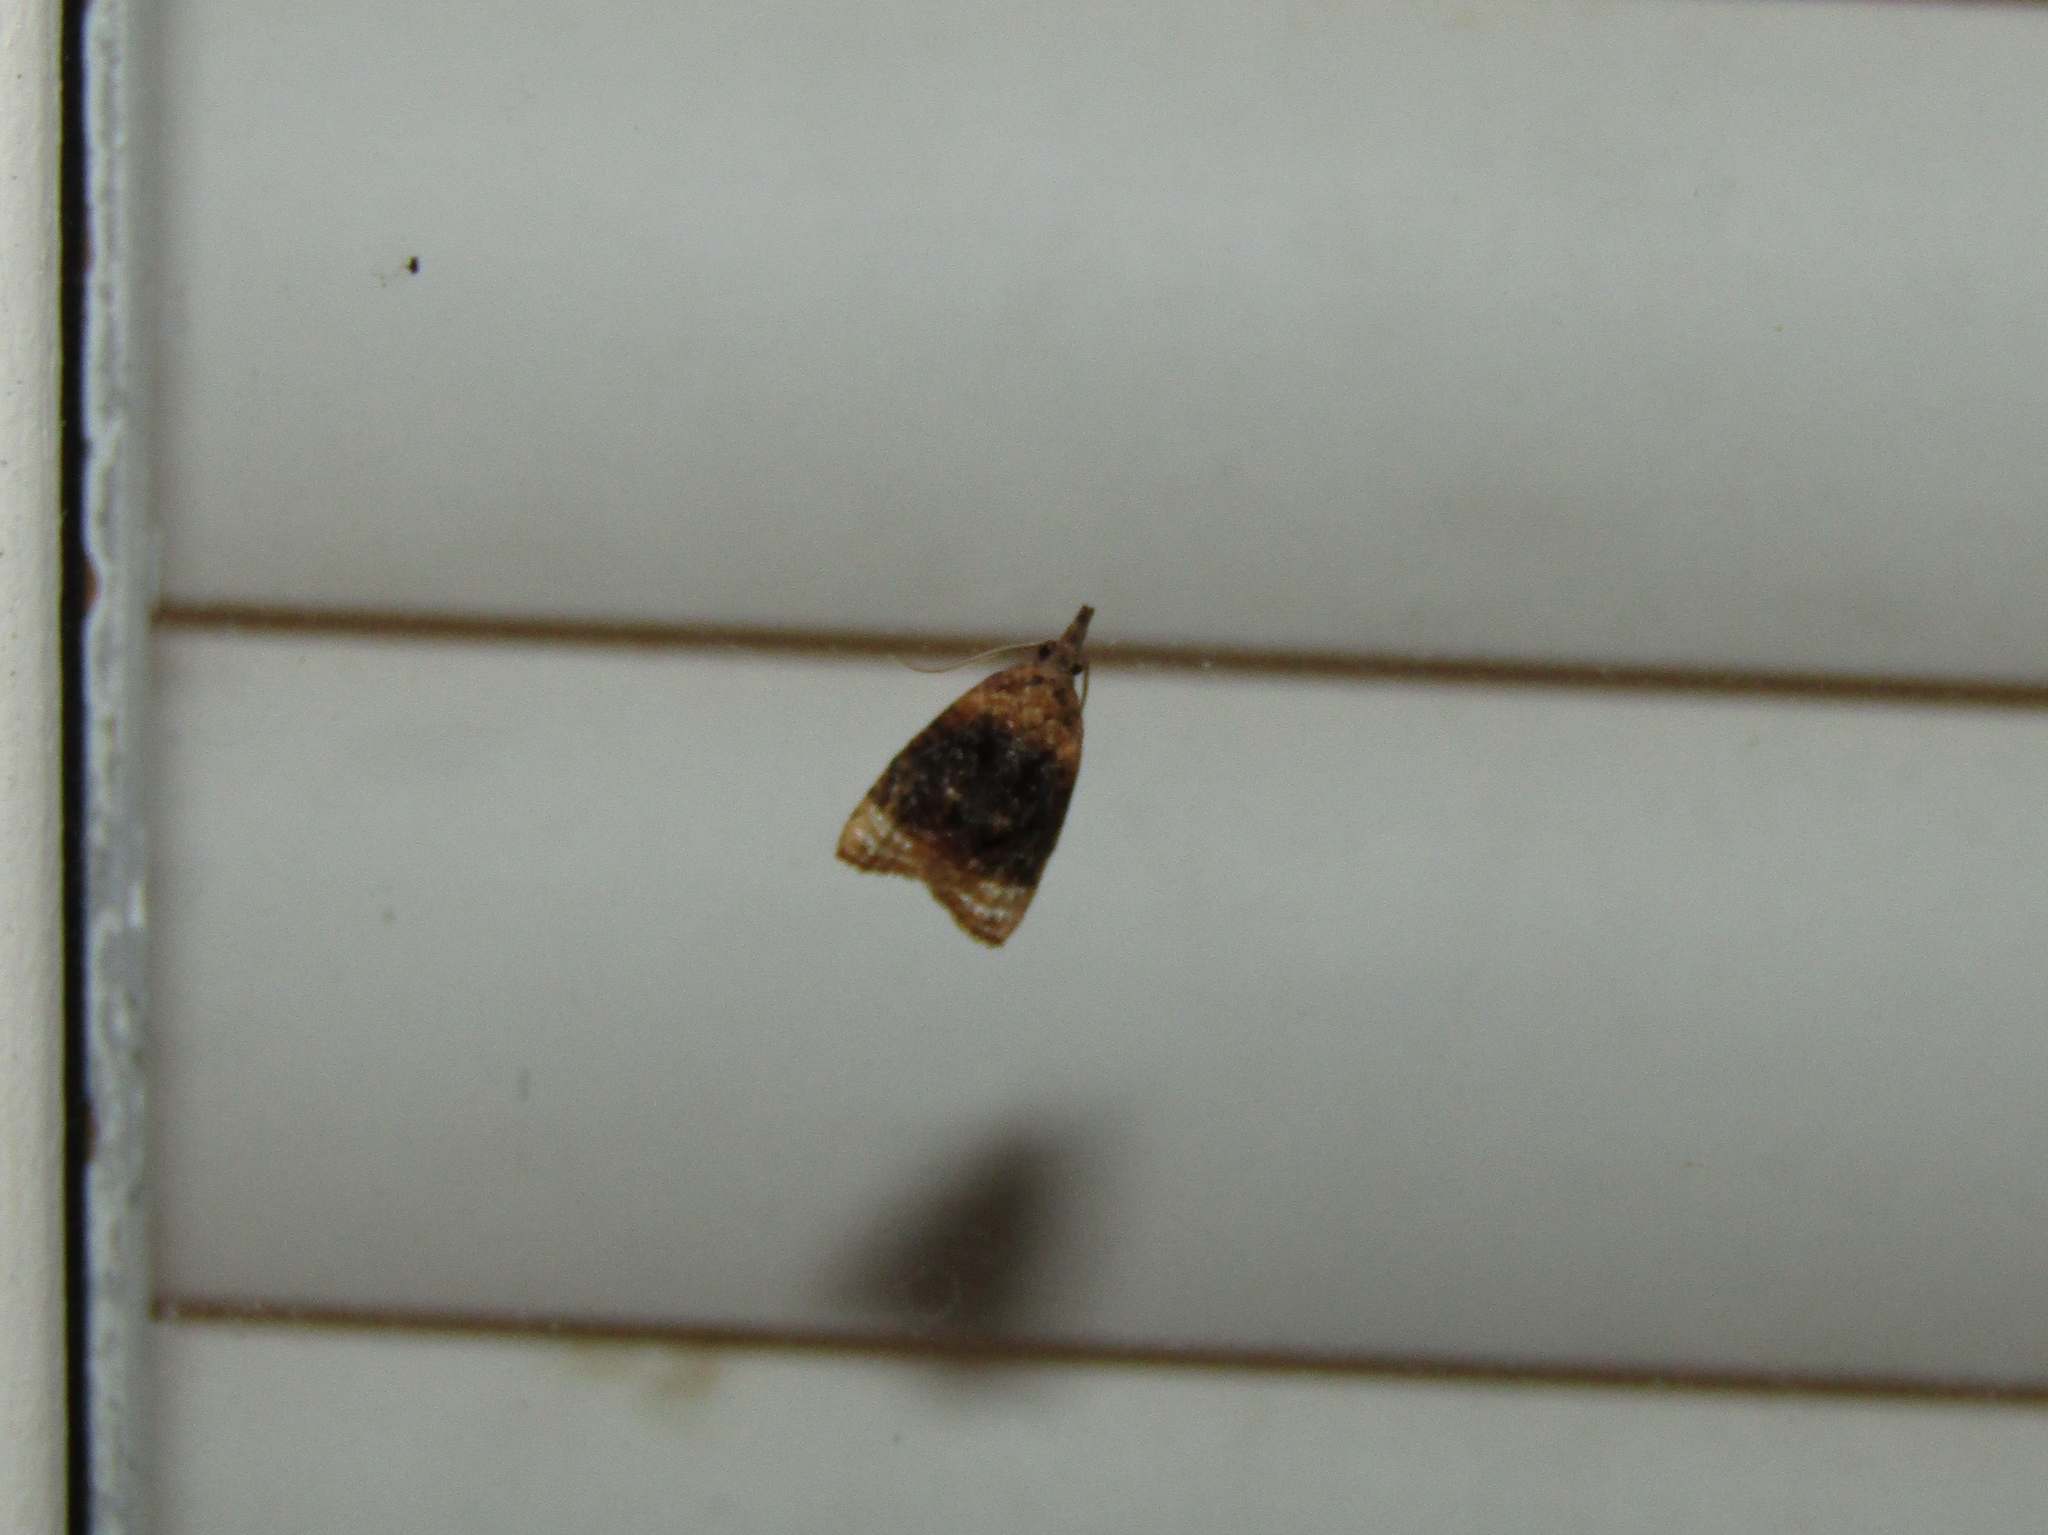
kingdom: Animalia
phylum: Arthropoda
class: Insecta
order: Lepidoptera
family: Tortricidae
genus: Platynota
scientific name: Platynota flavedana
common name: Black-shaded platynota moth
